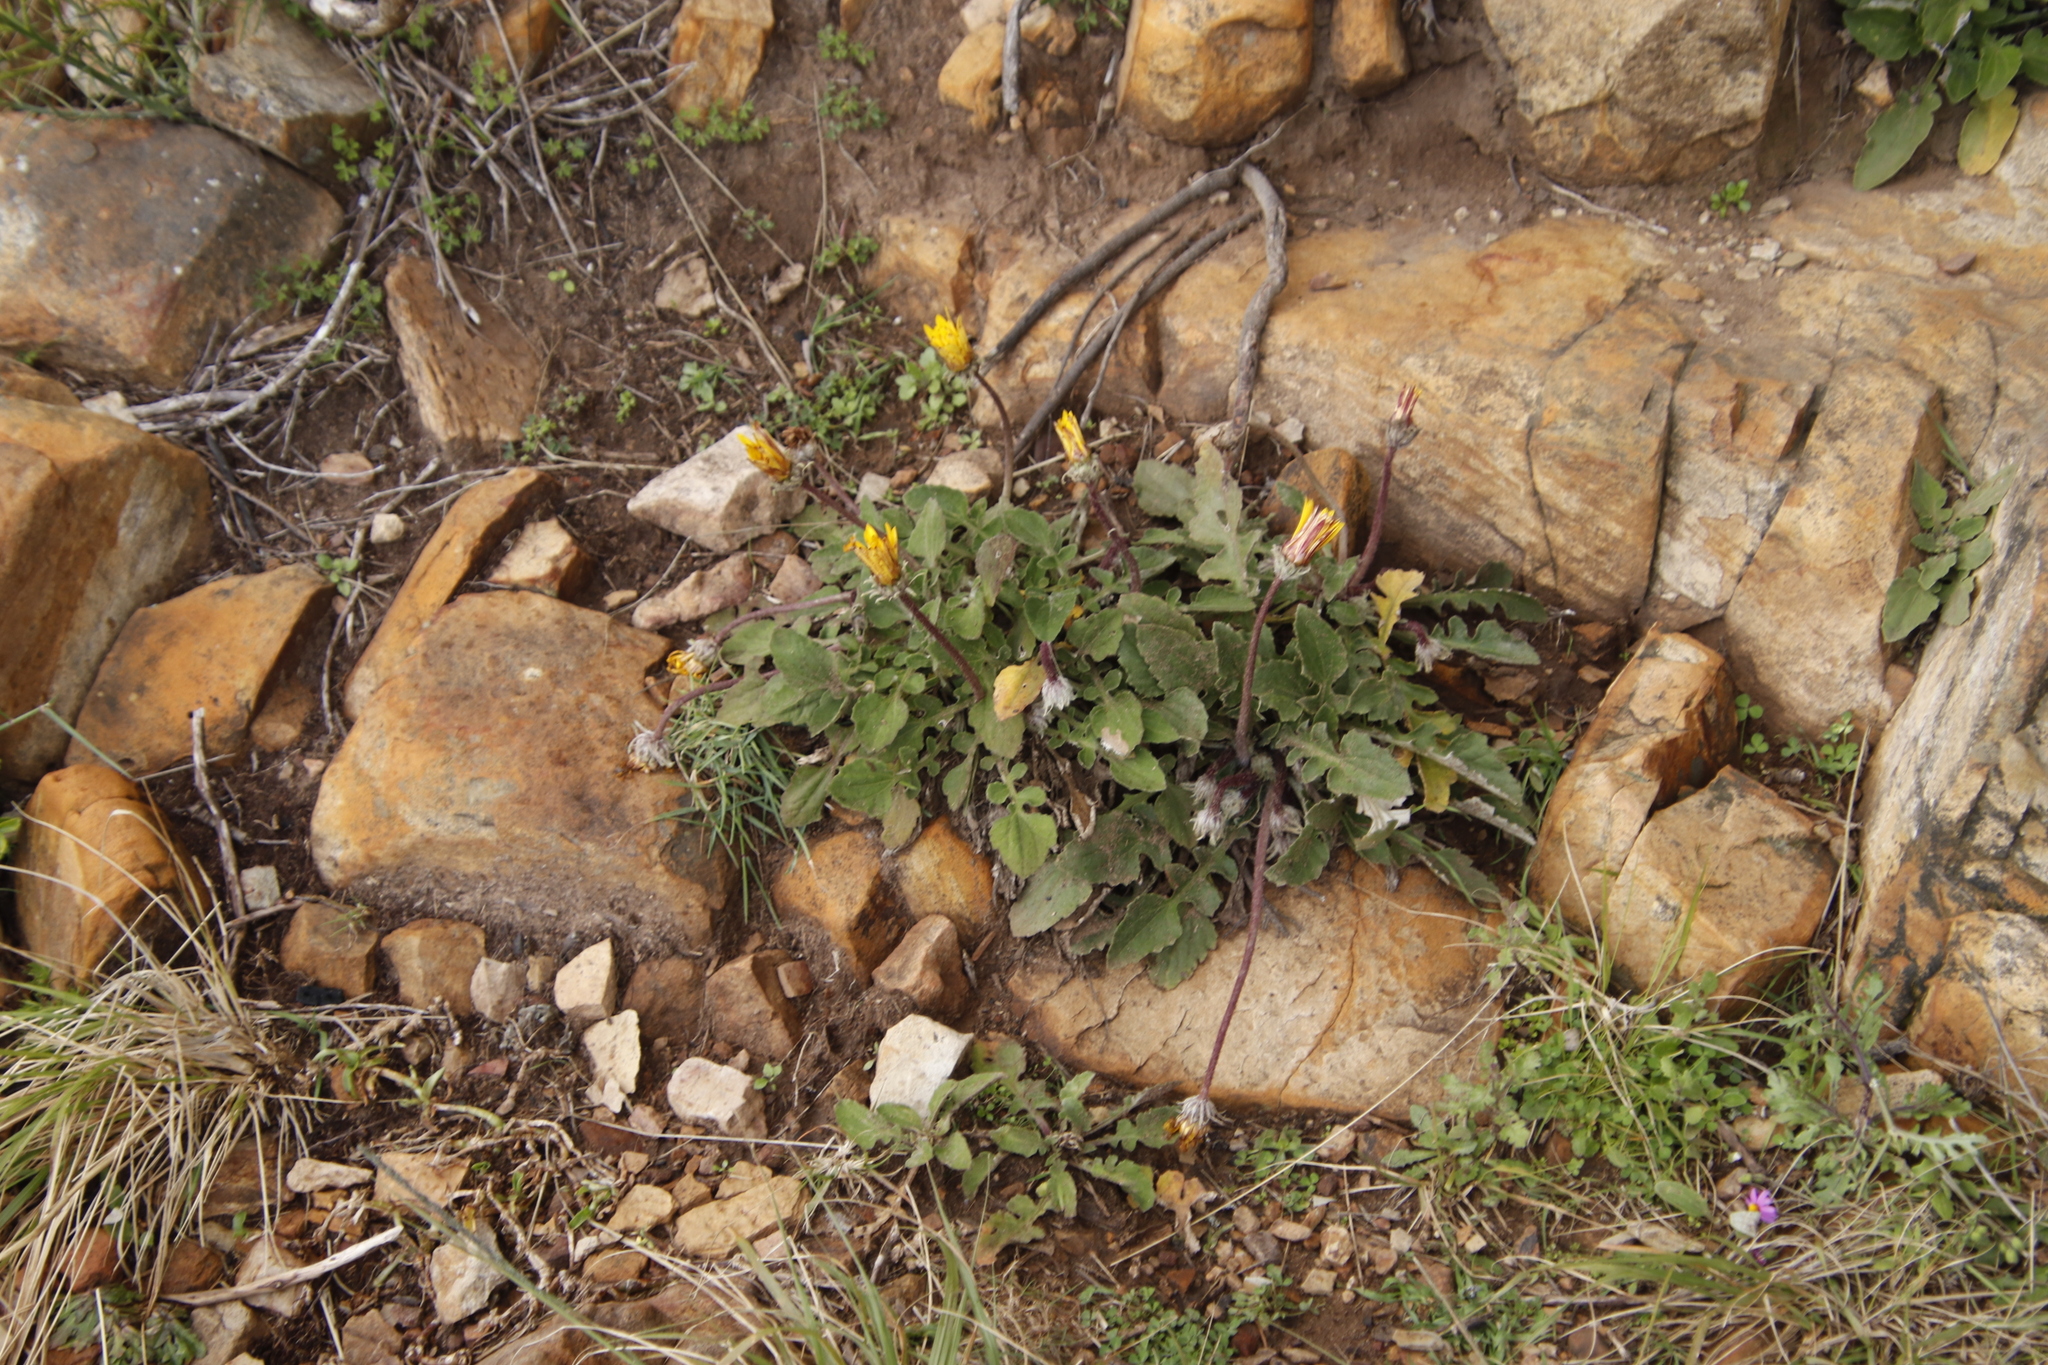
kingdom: Plantae
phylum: Tracheophyta
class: Magnoliopsida
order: Asterales
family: Asteraceae
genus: Arctotis
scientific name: Arctotis acaulis
